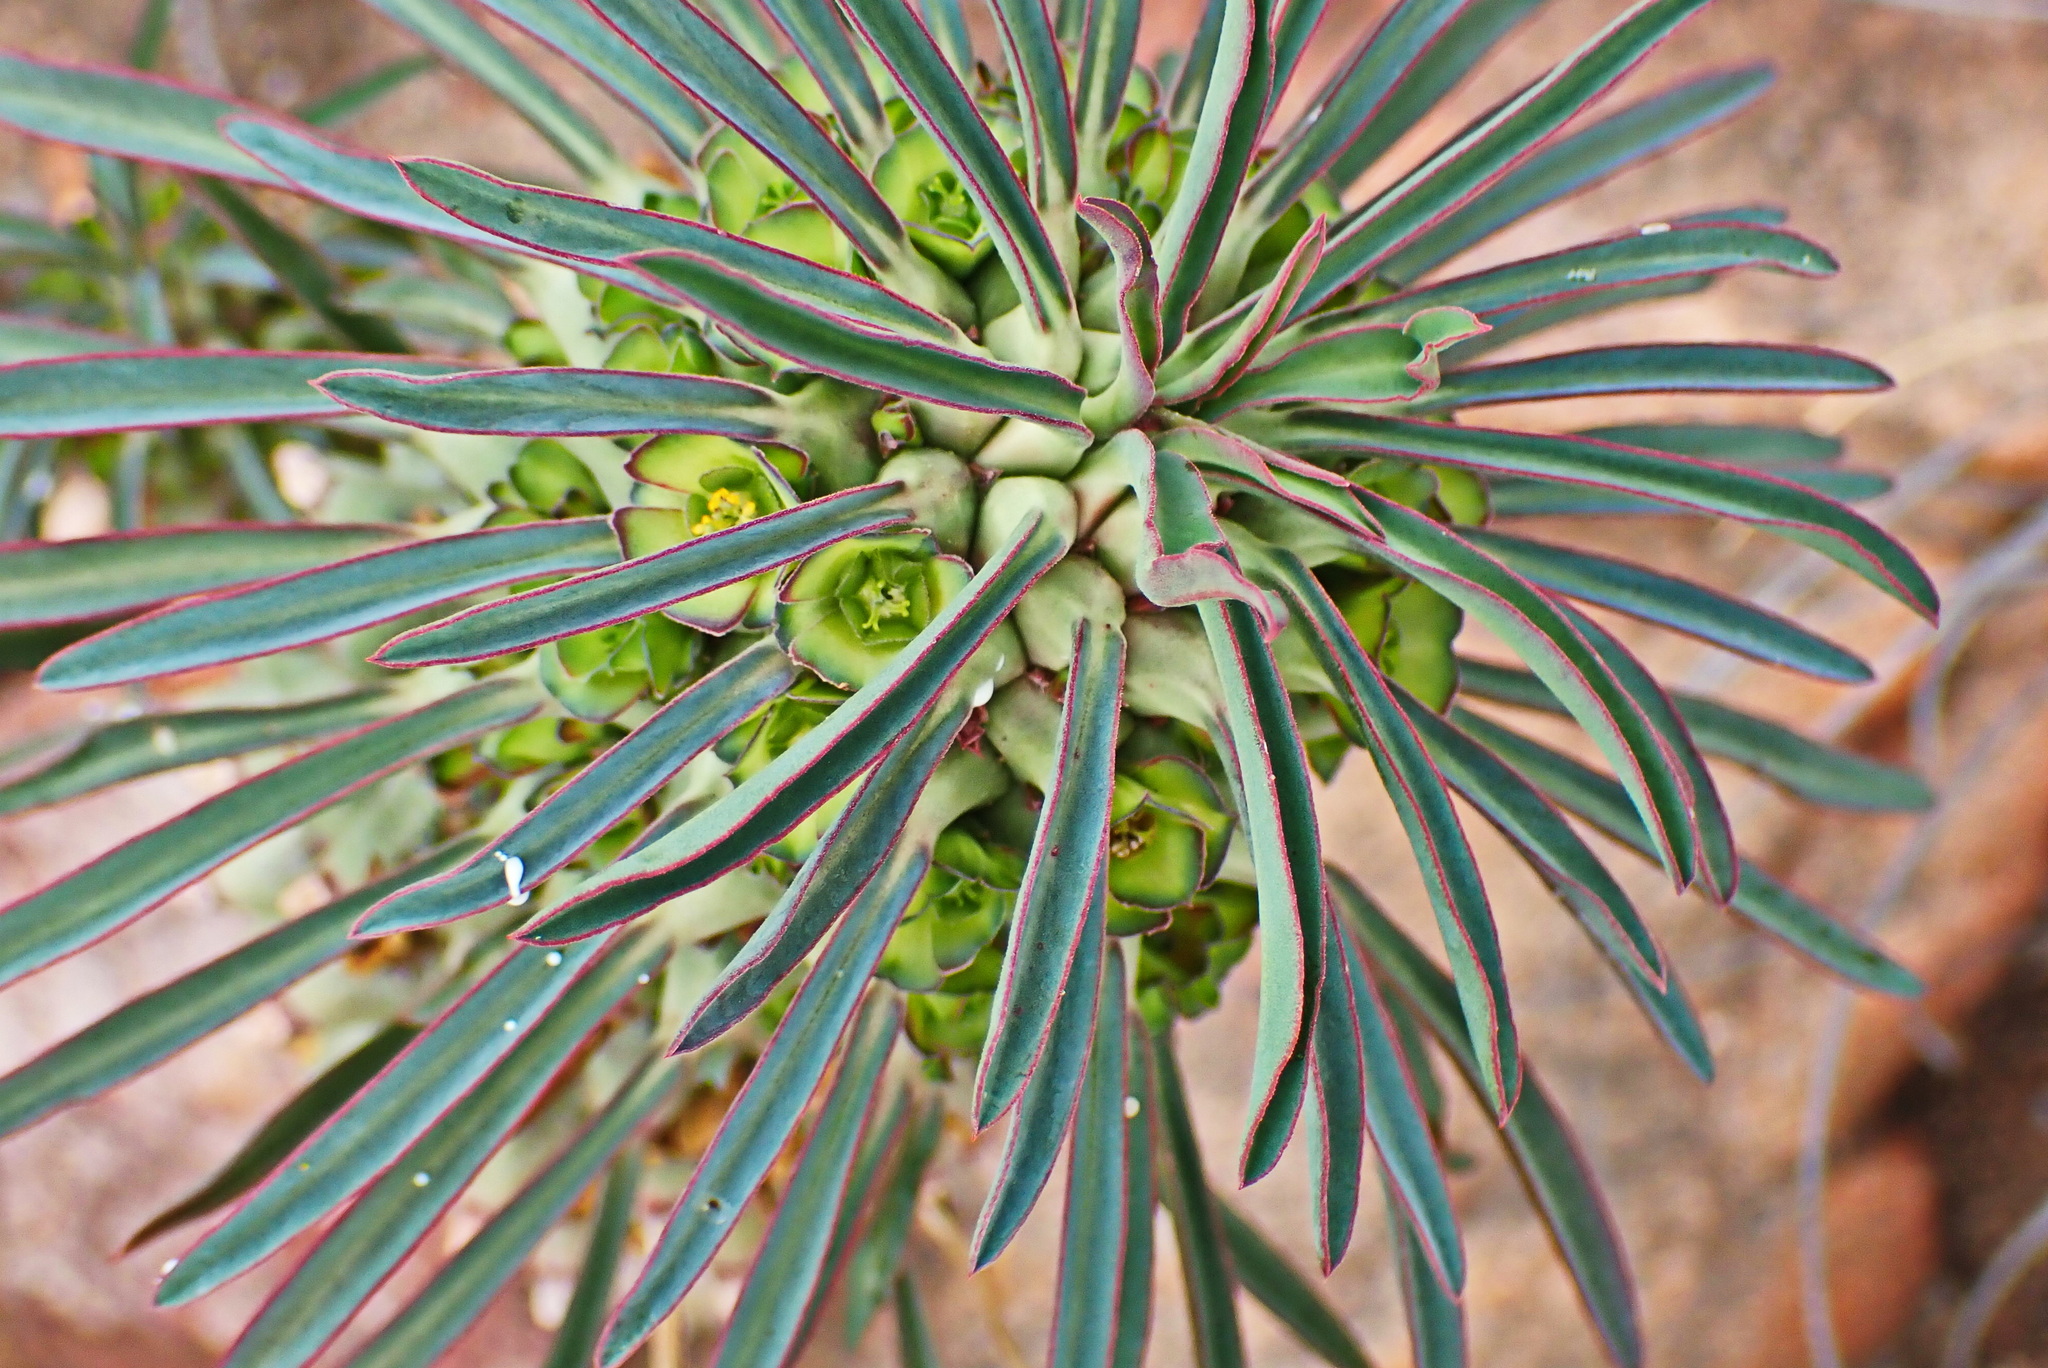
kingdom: Plantae
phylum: Tracheophyta
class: Magnoliopsida
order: Malpighiales
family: Euphorbiaceae
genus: Euphorbia
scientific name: Euphorbia clandestina
